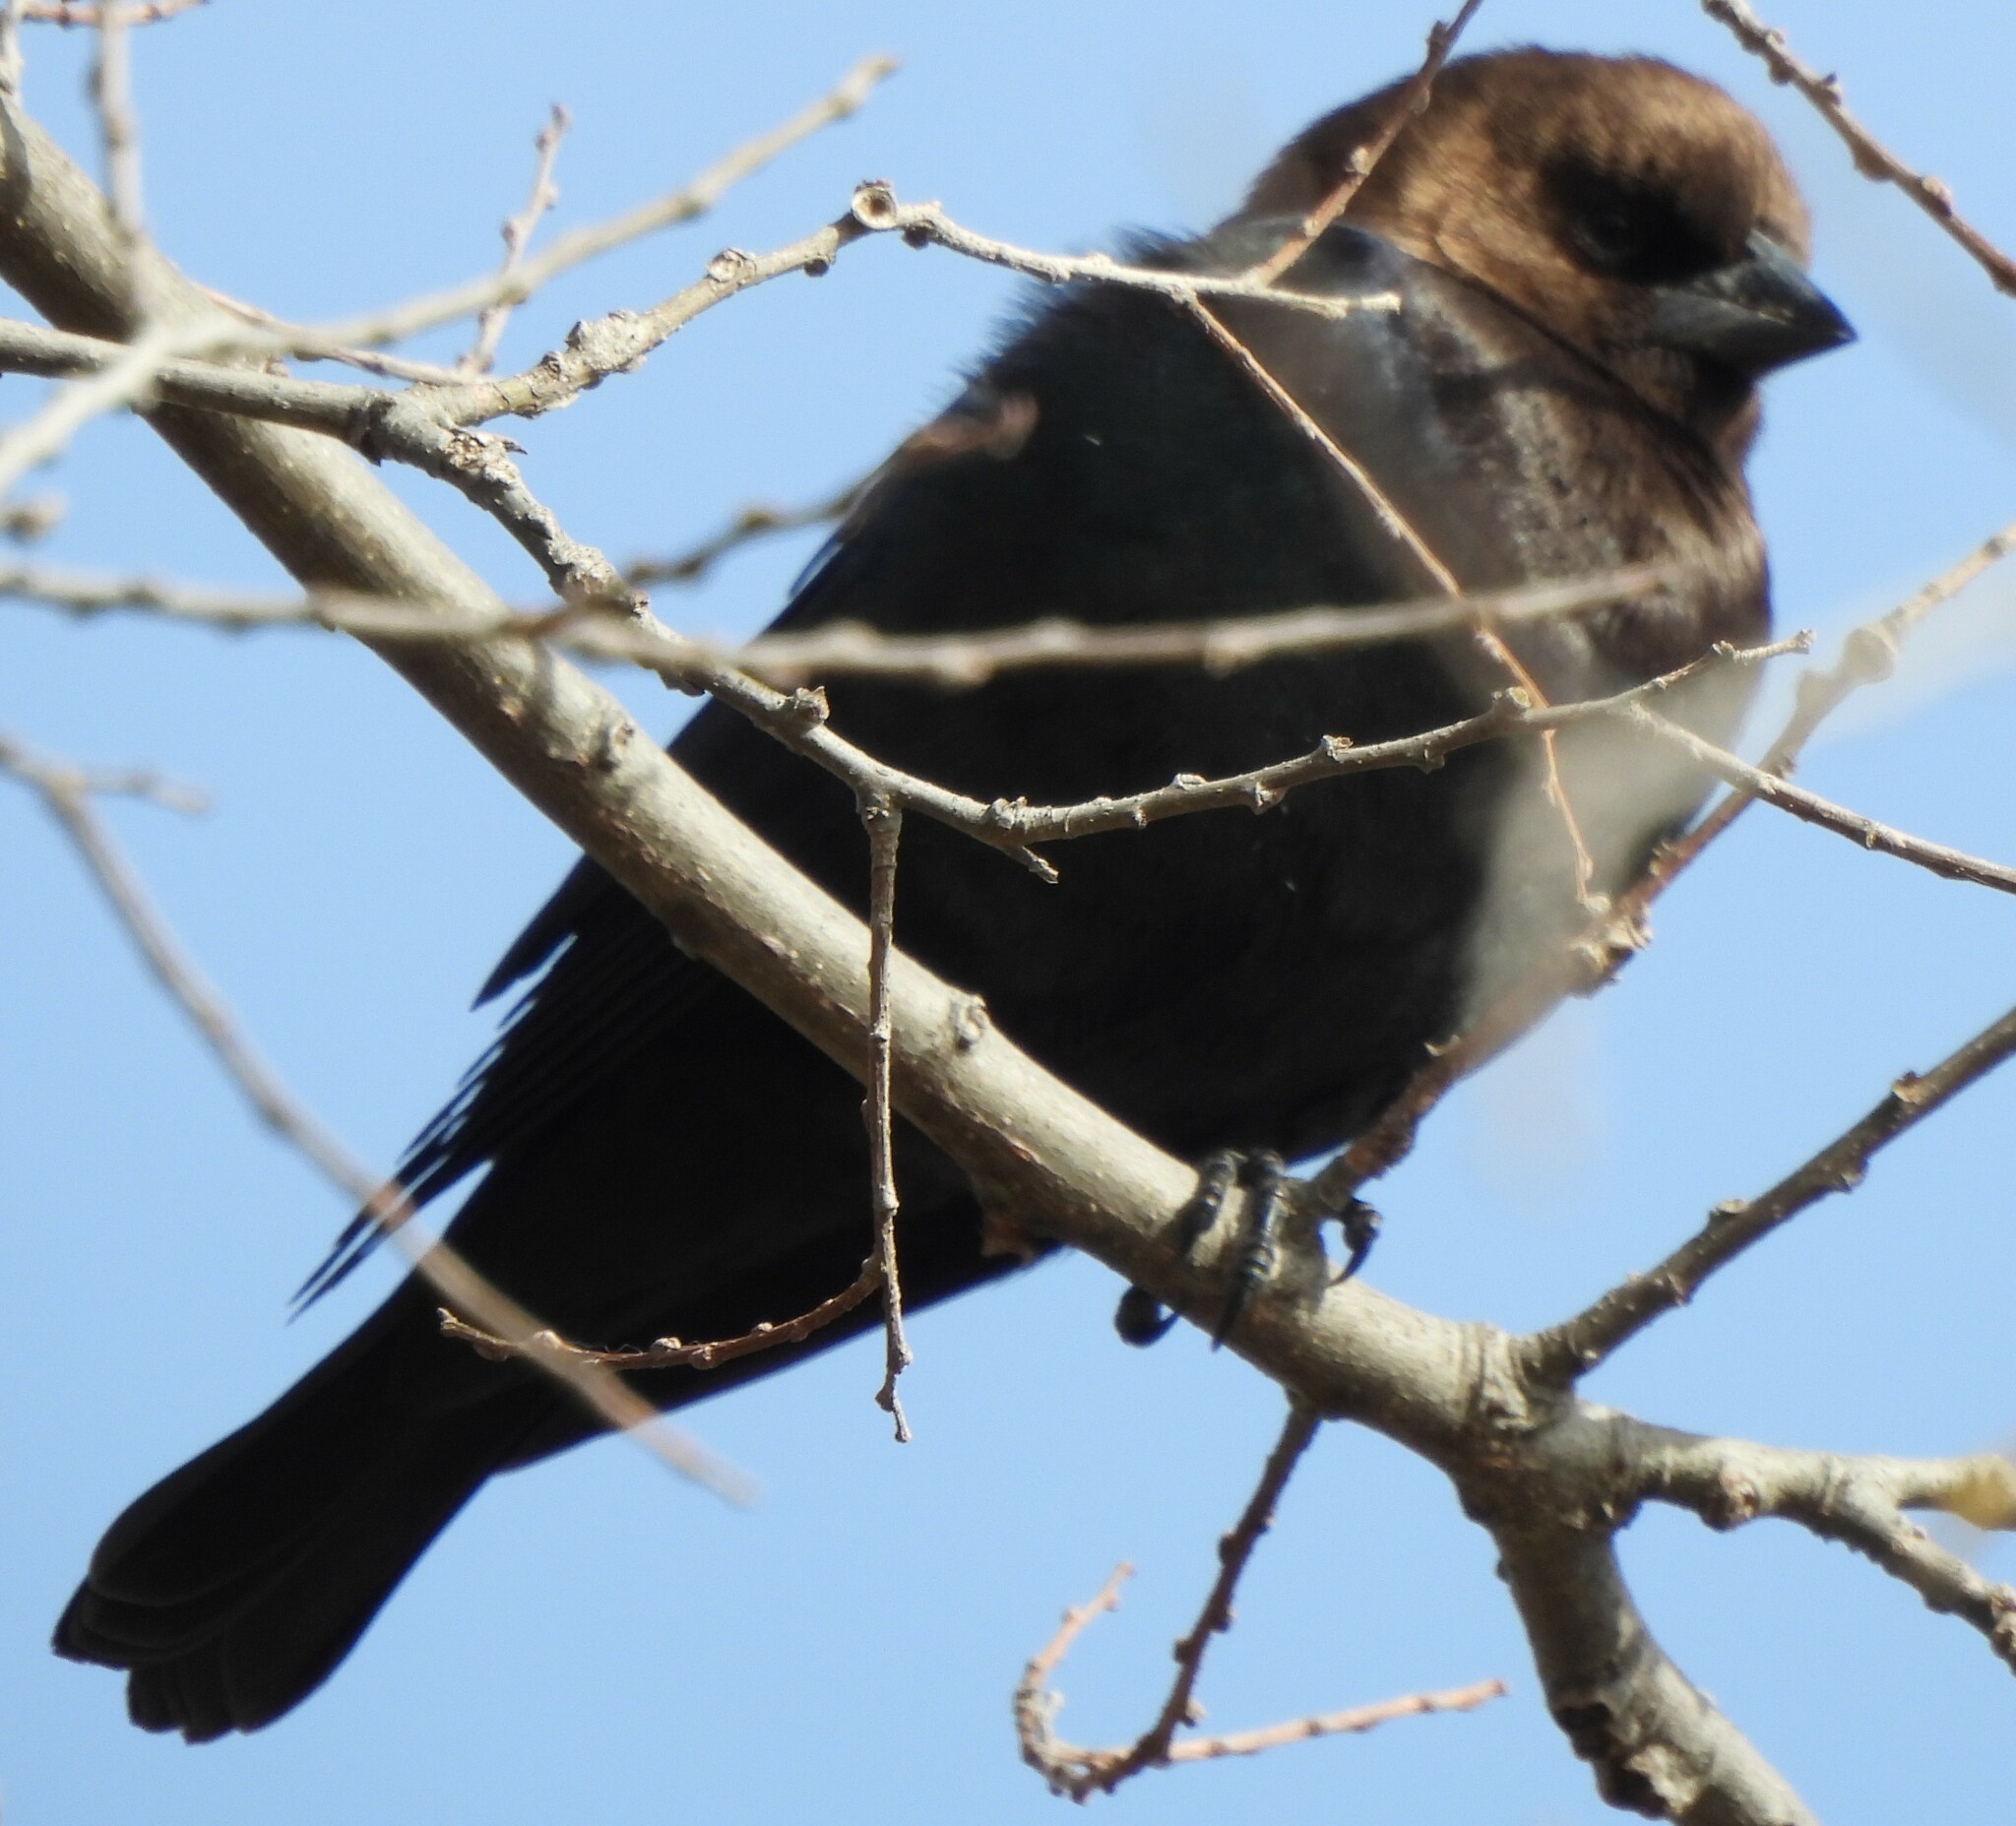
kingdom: Animalia
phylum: Chordata
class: Aves
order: Passeriformes
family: Icteridae
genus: Molothrus
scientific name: Molothrus ater
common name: Brown-headed cowbird
